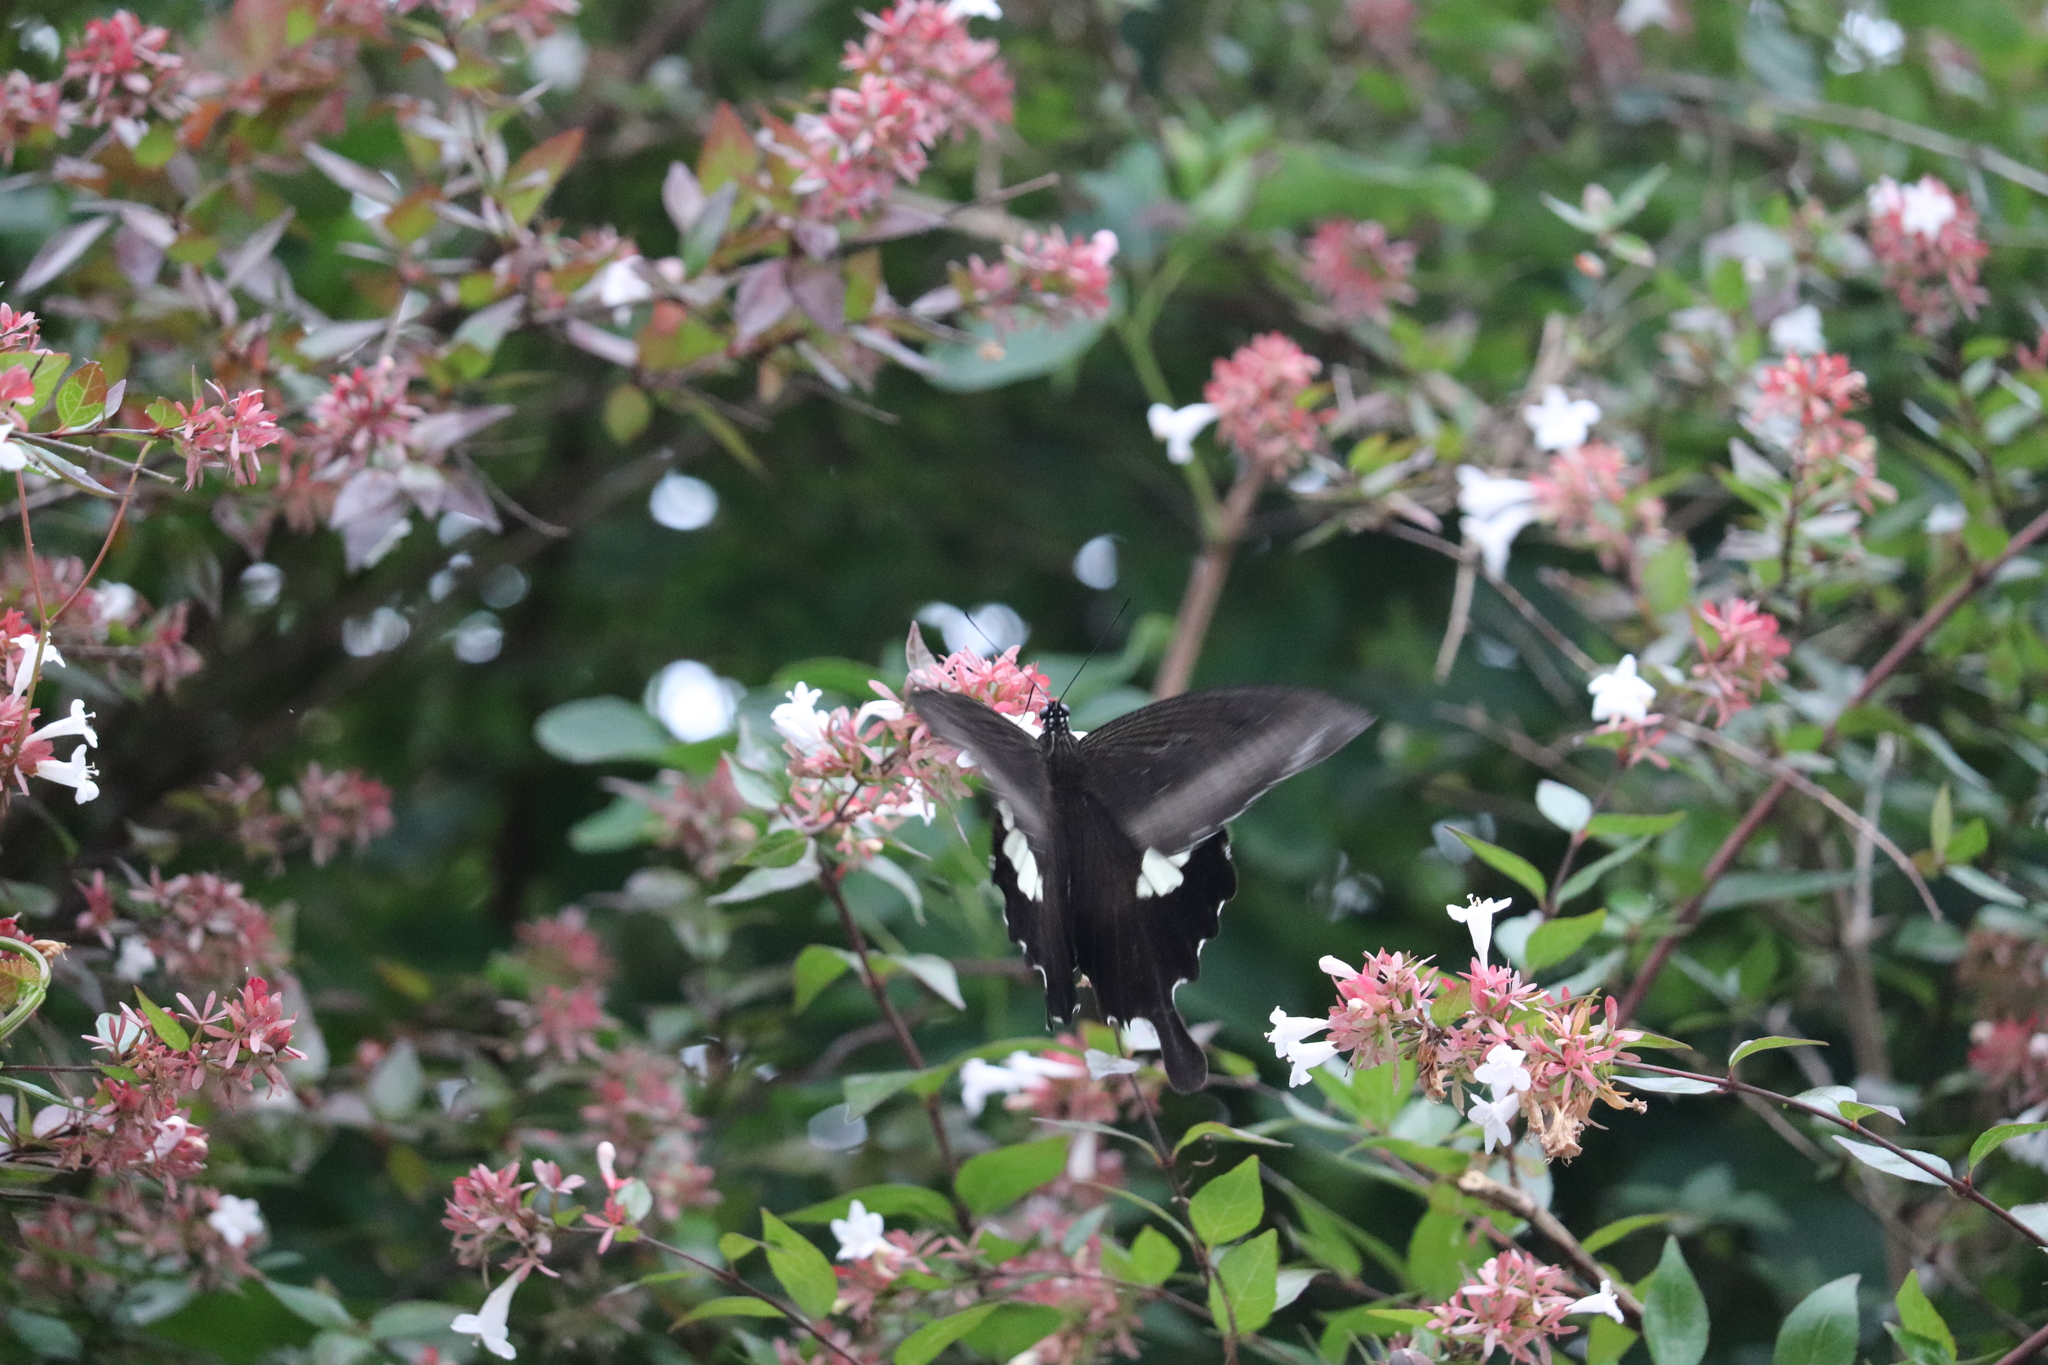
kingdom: Animalia
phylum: Arthropoda
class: Insecta
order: Lepidoptera
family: Papilionidae
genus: Papilio
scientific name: Papilio helenus
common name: Red helen
